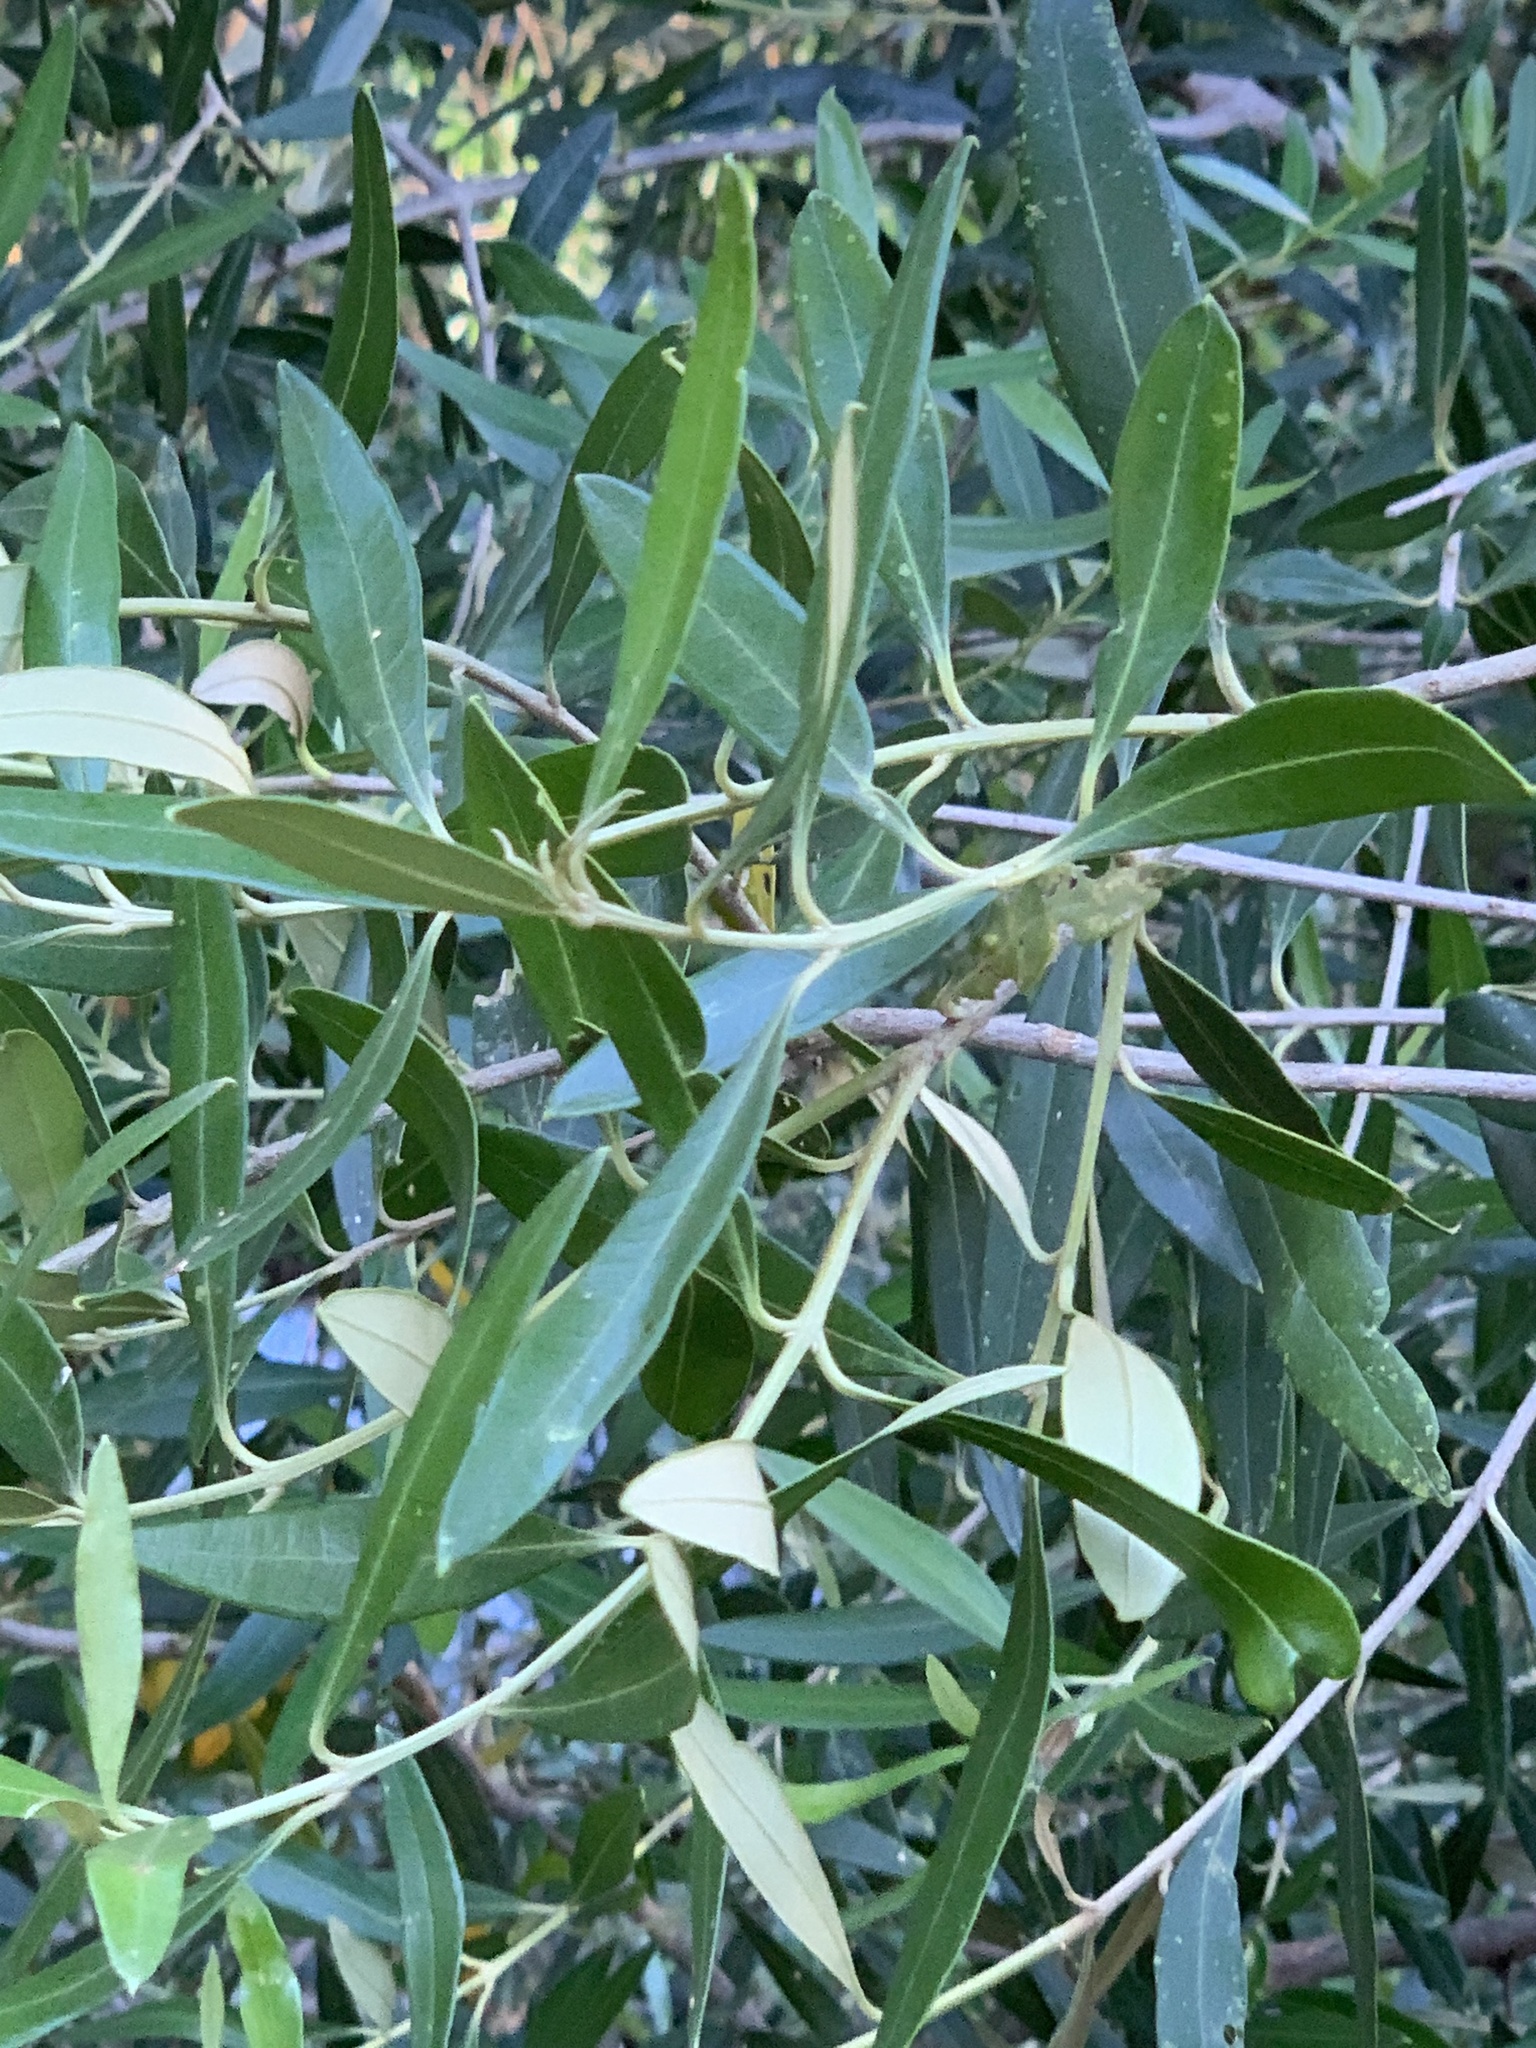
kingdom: Plantae
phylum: Tracheophyta
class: Magnoliopsida
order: Lamiales
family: Oleaceae
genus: Olea
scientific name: Olea europaea
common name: Olive
